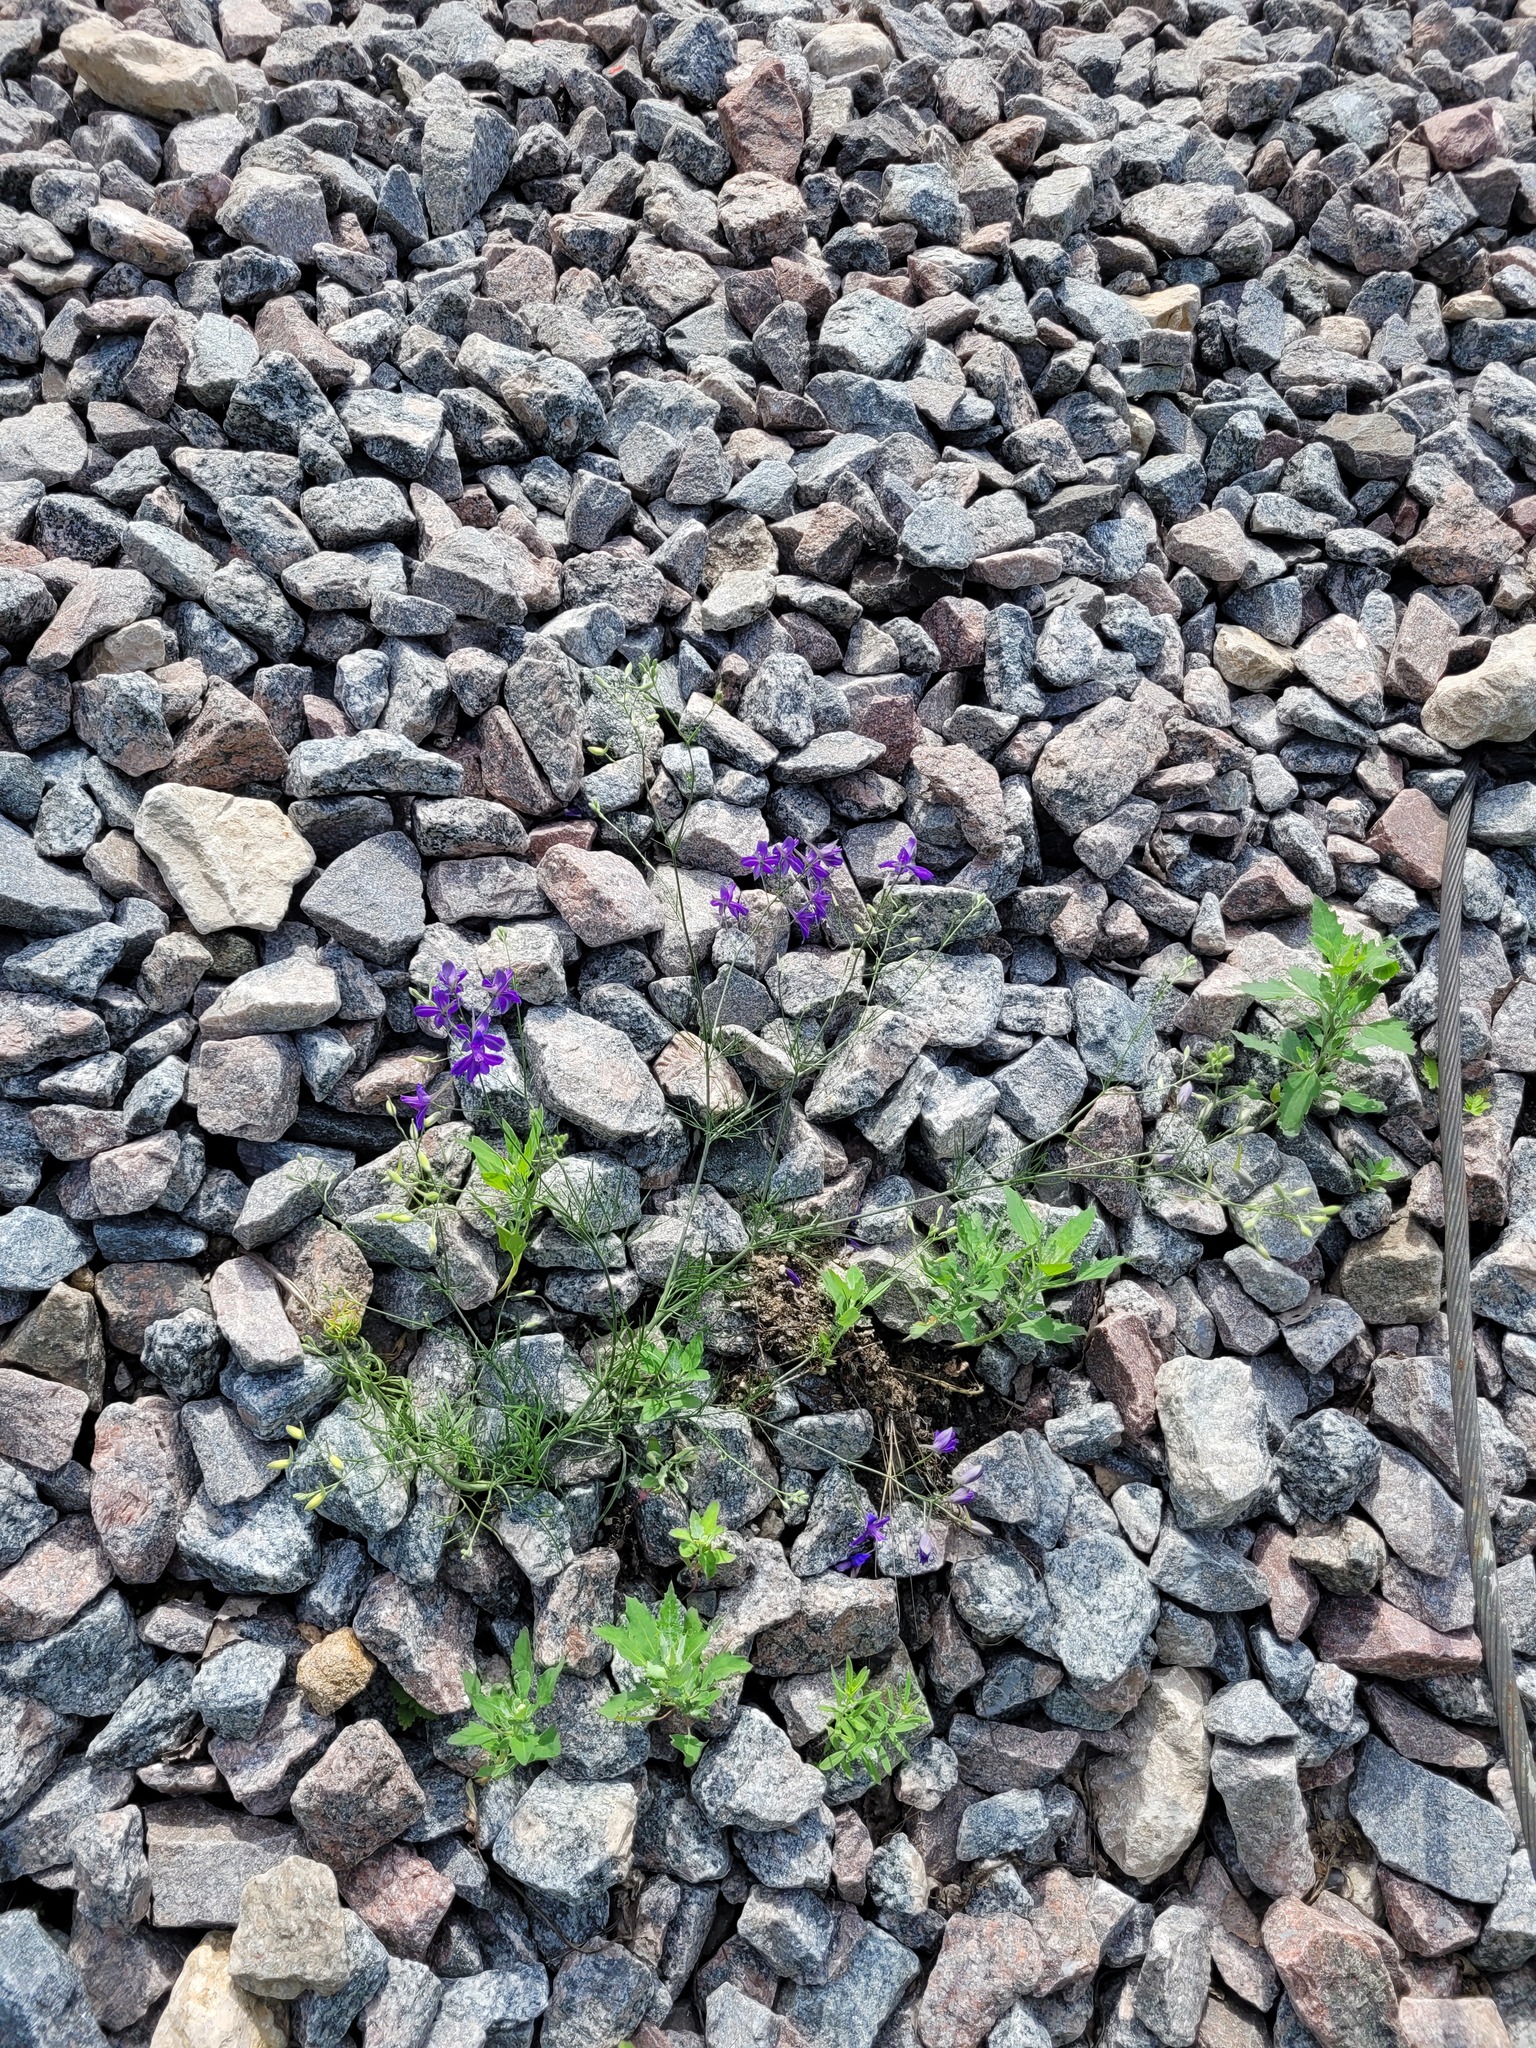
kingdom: Plantae
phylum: Tracheophyta
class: Magnoliopsida
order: Ranunculales
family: Ranunculaceae
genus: Delphinium
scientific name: Delphinium consolida
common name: Branching larkspur
